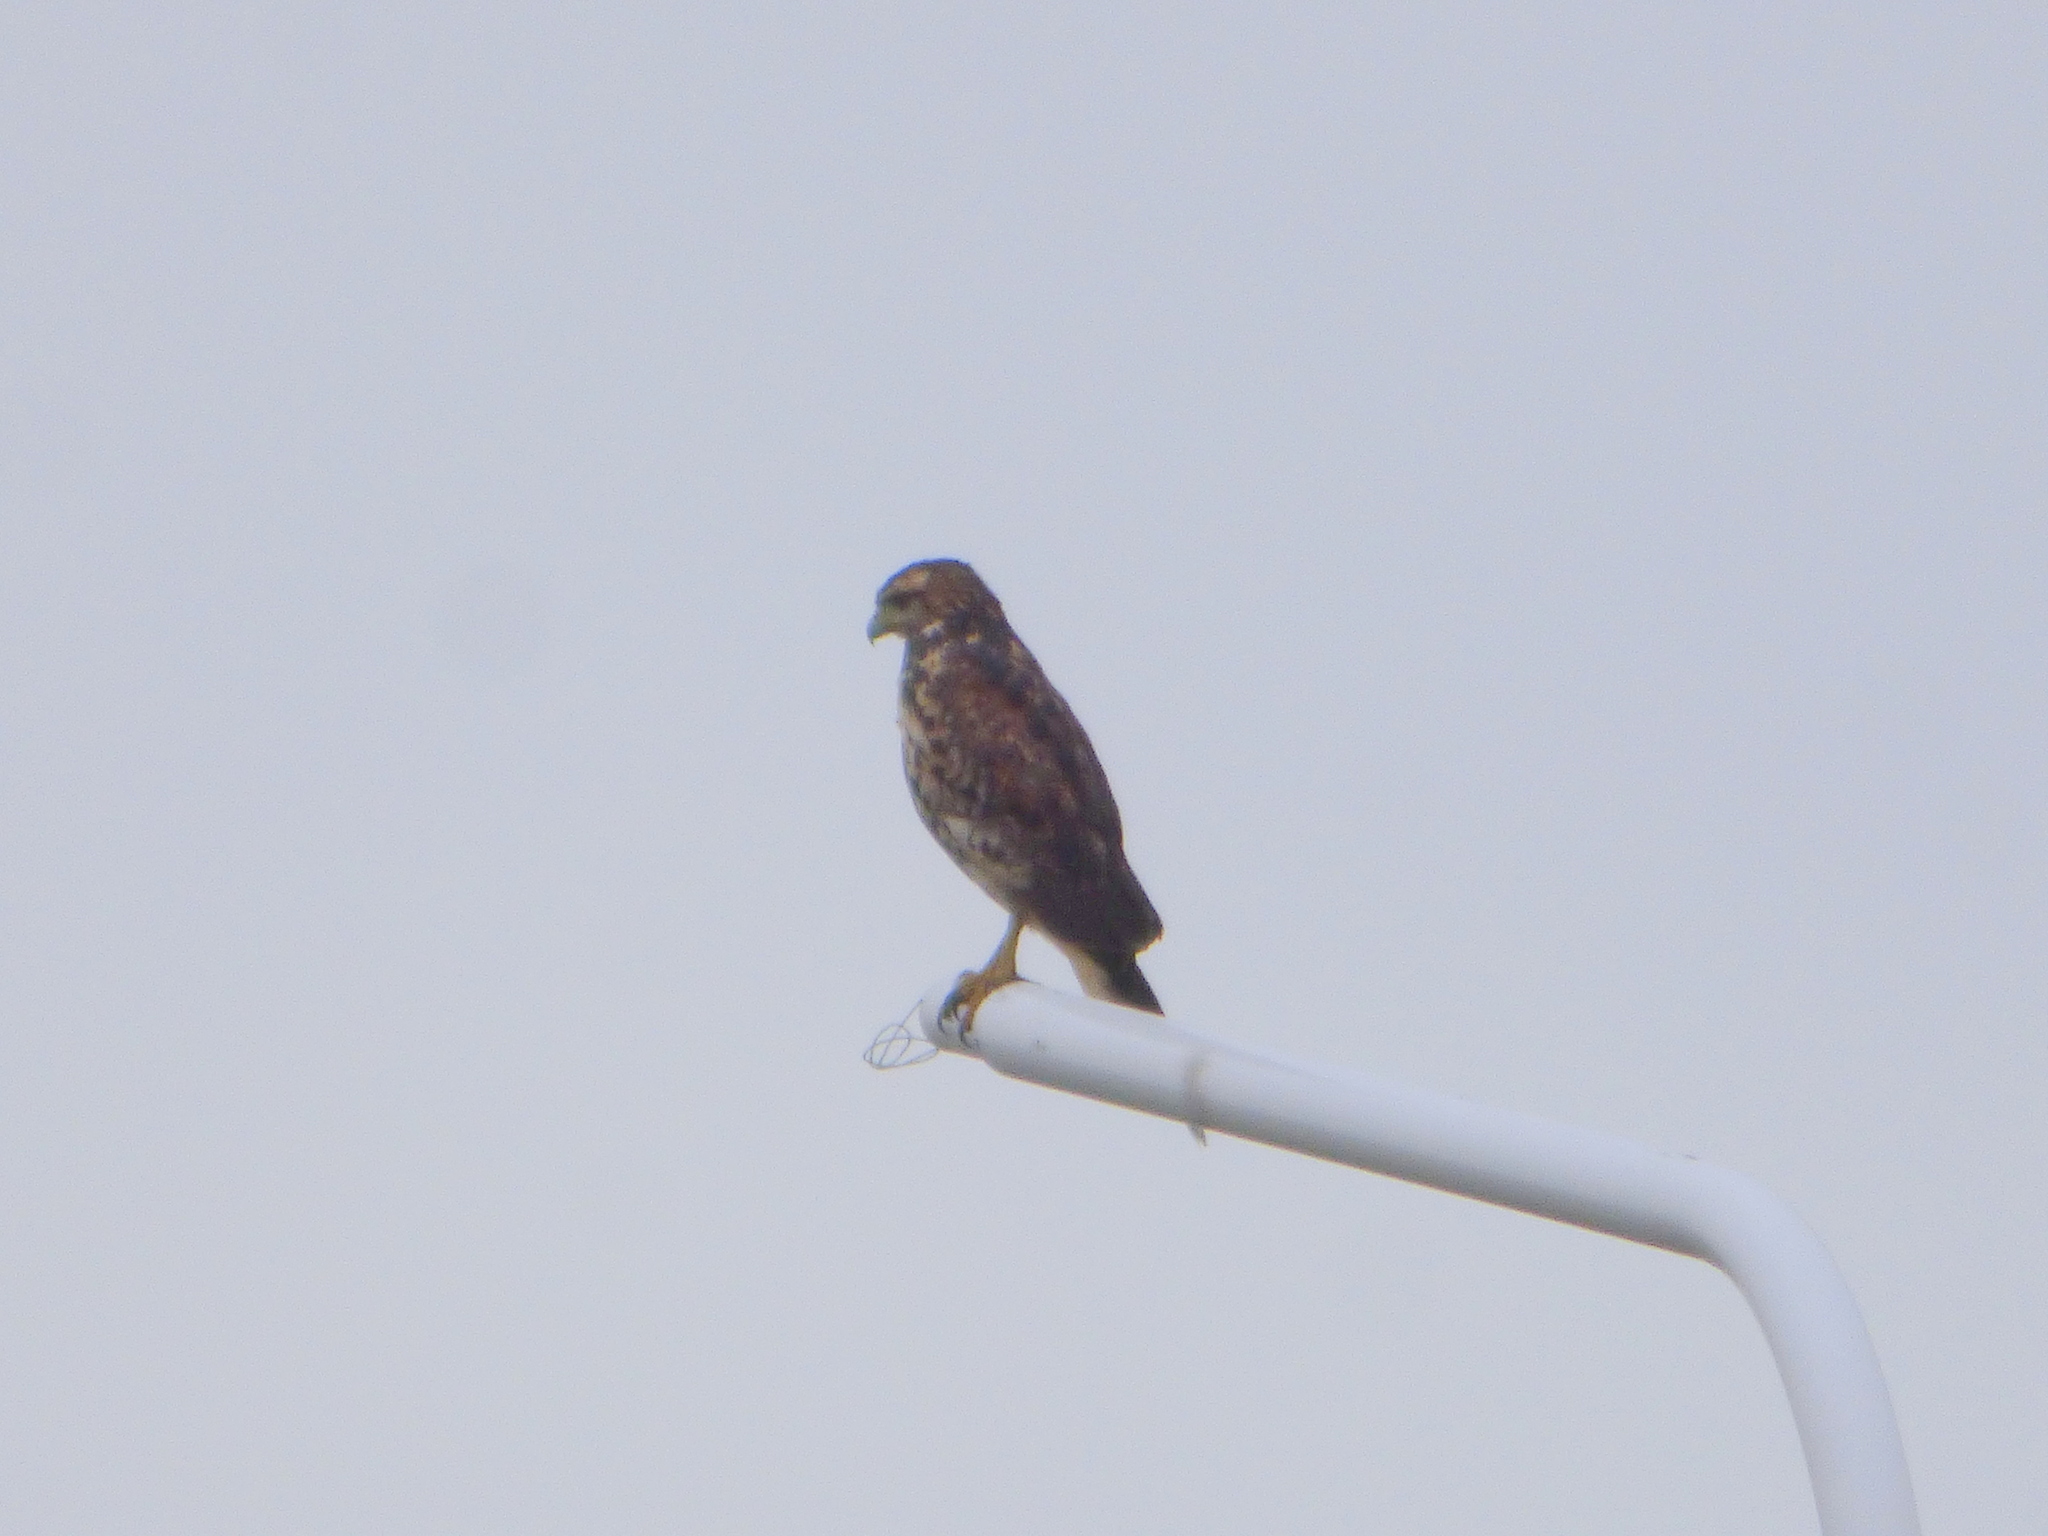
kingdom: Animalia
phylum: Chordata
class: Aves
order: Accipitriformes
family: Accipitridae
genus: Parabuteo
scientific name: Parabuteo unicinctus
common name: Harris's hawk
